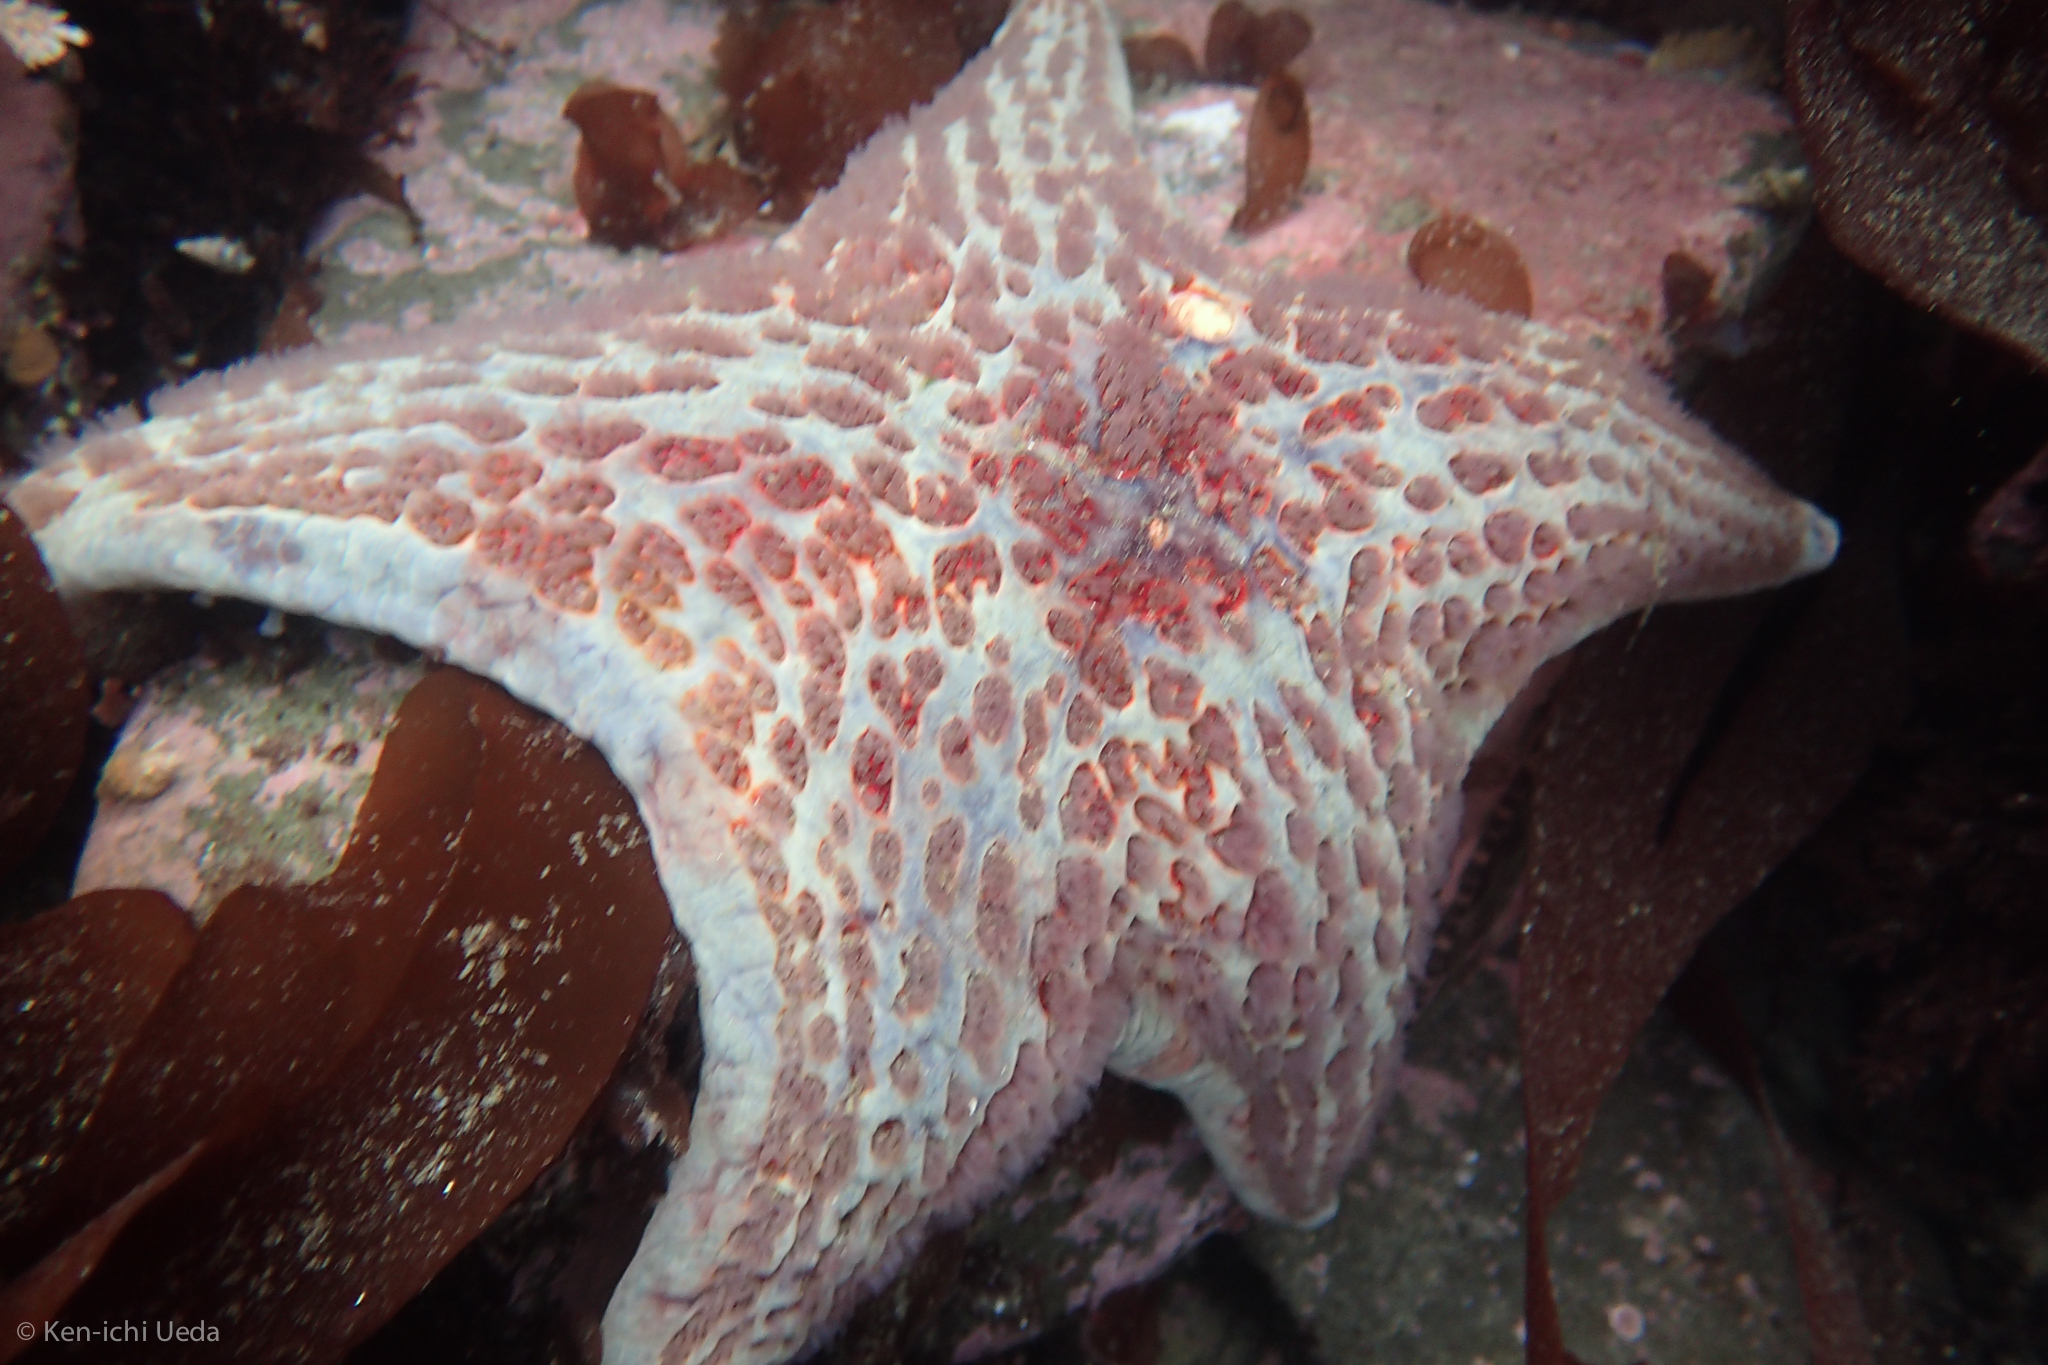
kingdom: Animalia
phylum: Echinodermata
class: Asteroidea
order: Valvatida
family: Asteropseidae
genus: Dermasterias
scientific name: Dermasterias imbricata
